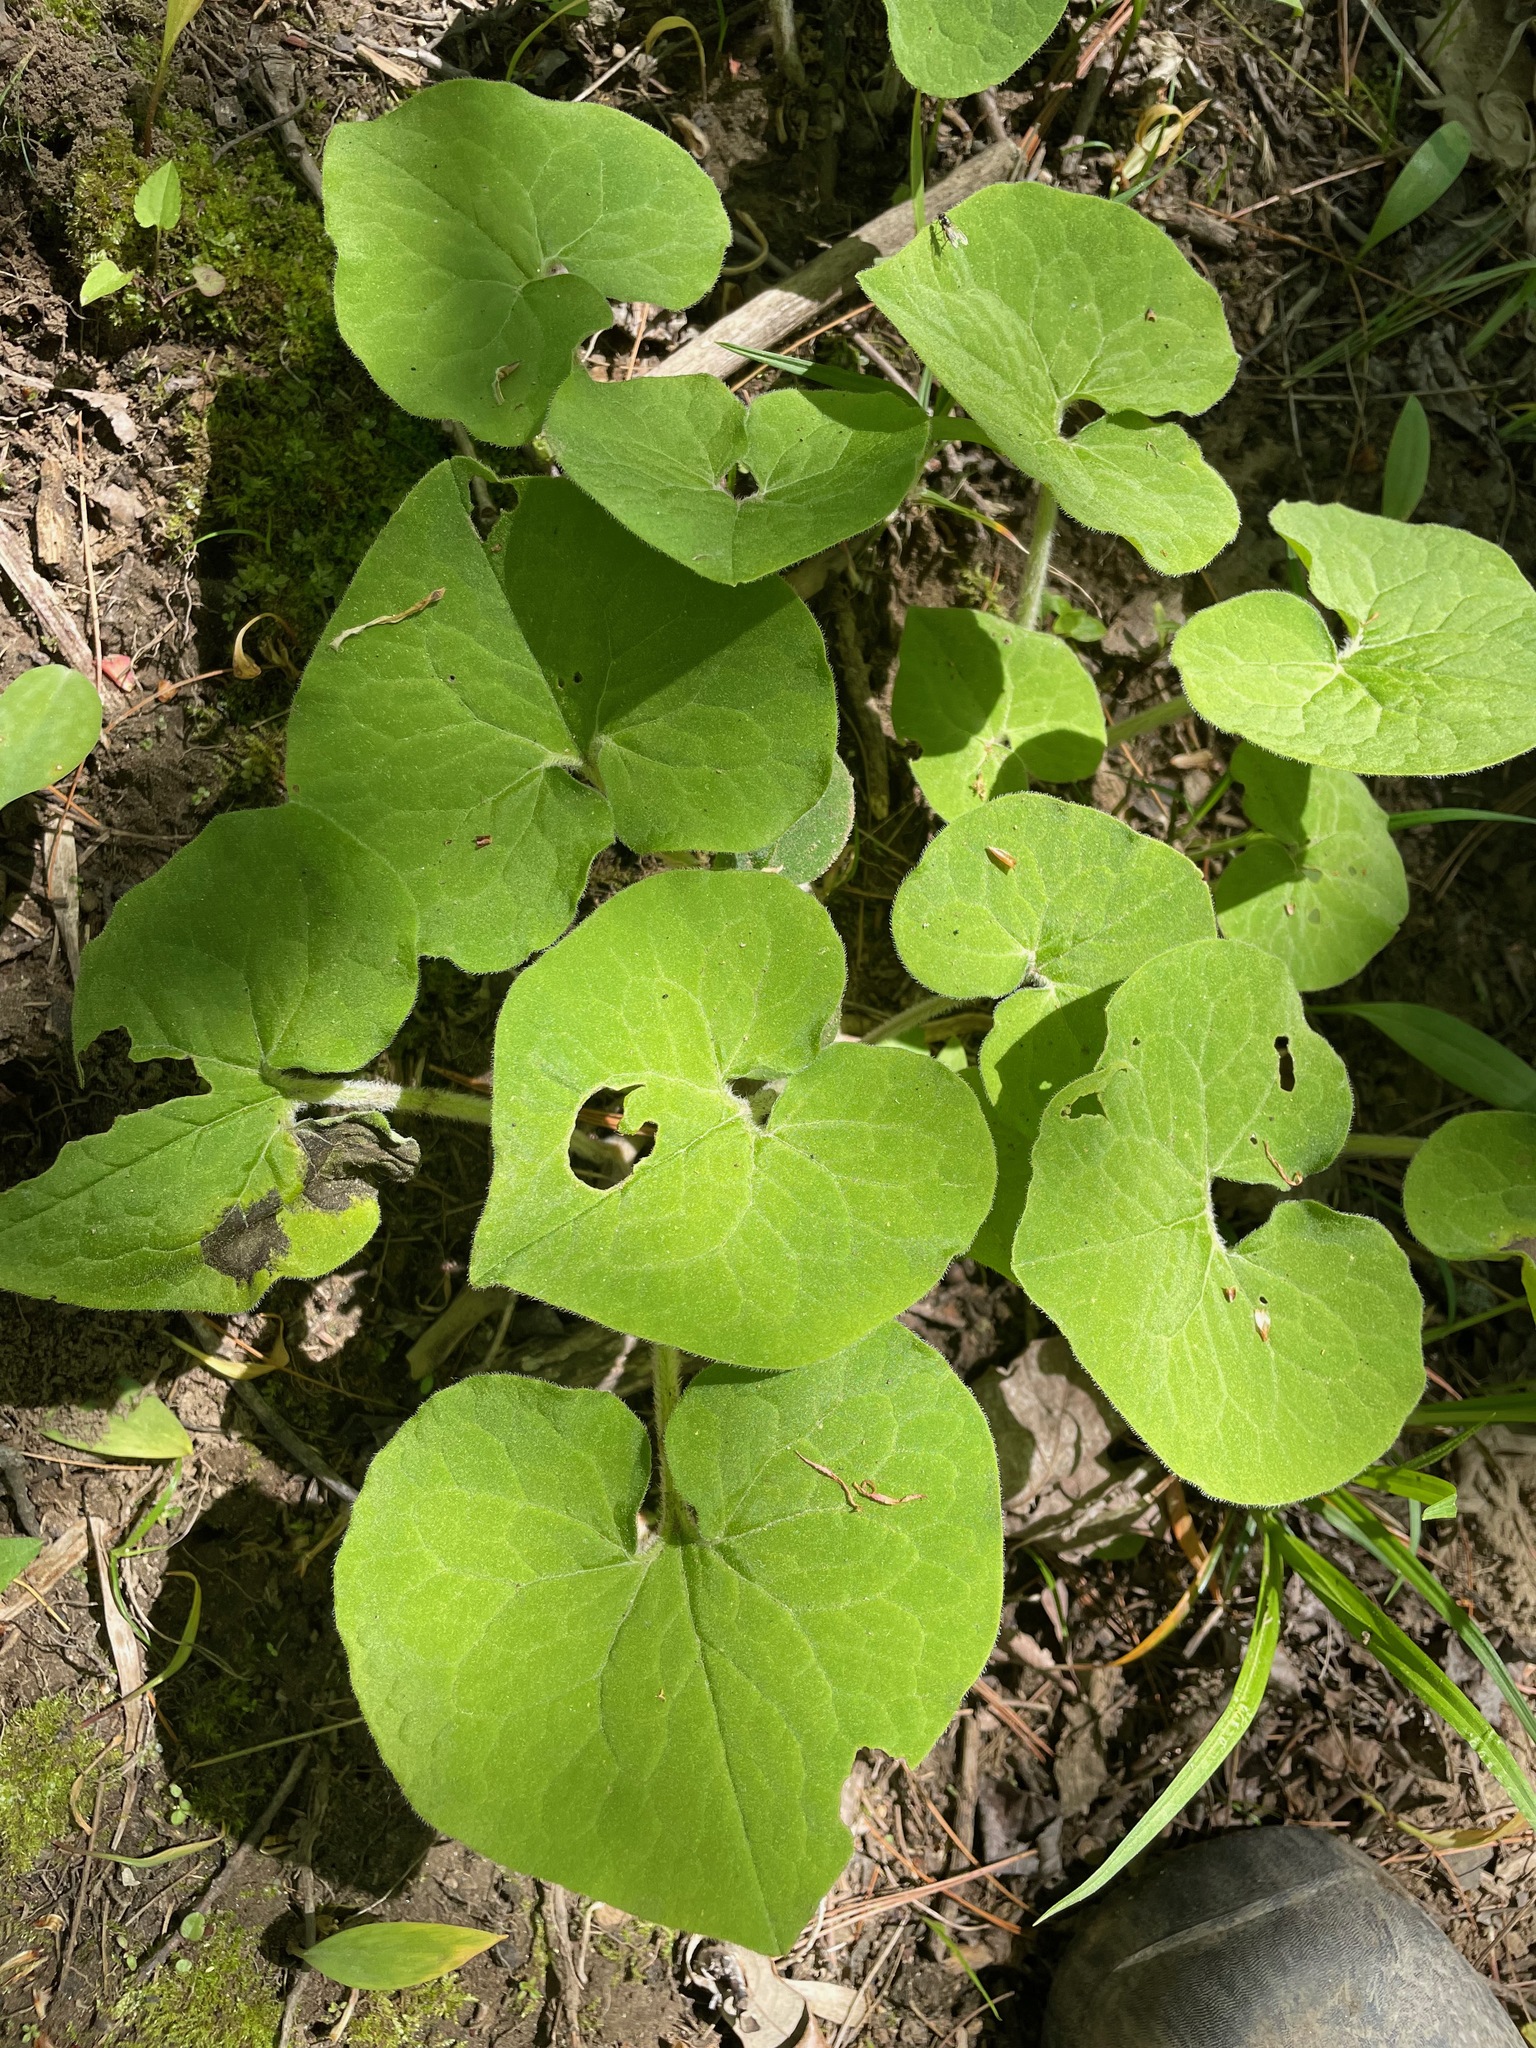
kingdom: Plantae
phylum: Tracheophyta
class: Magnoliopsida
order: Piperales
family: Aristolochiaceae
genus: Asarum
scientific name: Asarum canadense
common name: Wild ginger
